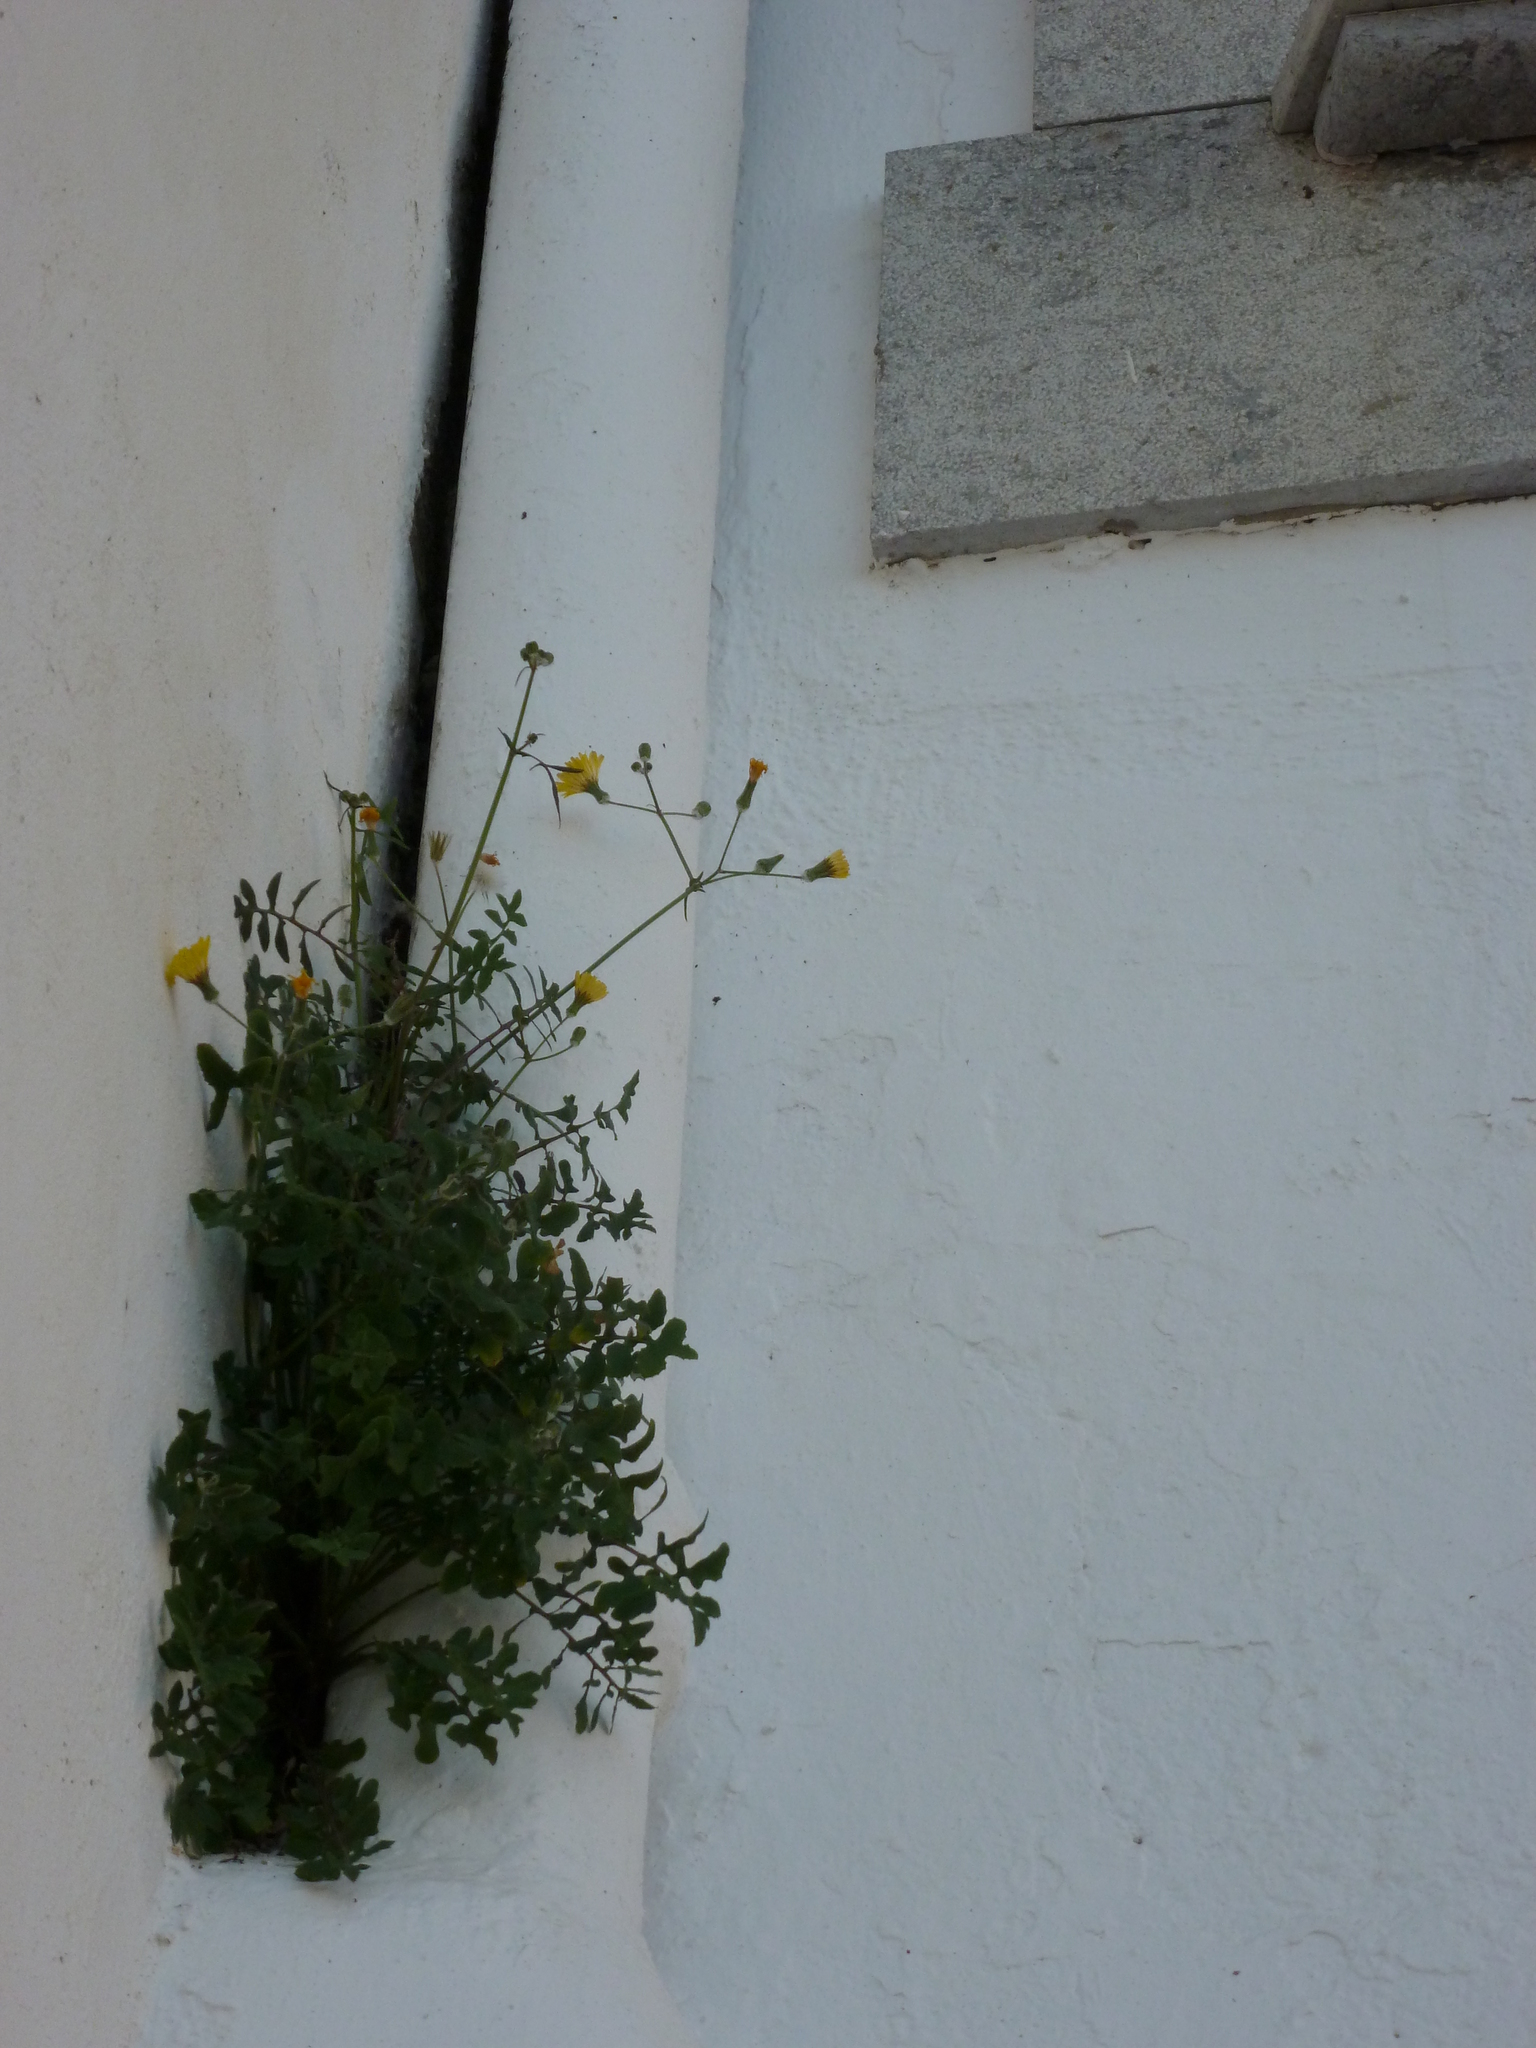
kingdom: Plantae
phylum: Tracheophyta
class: Magnoliopsida
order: Asterales
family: Asteraceae
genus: Sonchus
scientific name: Sonchus tenerrimus
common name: Clammy sowthistle
